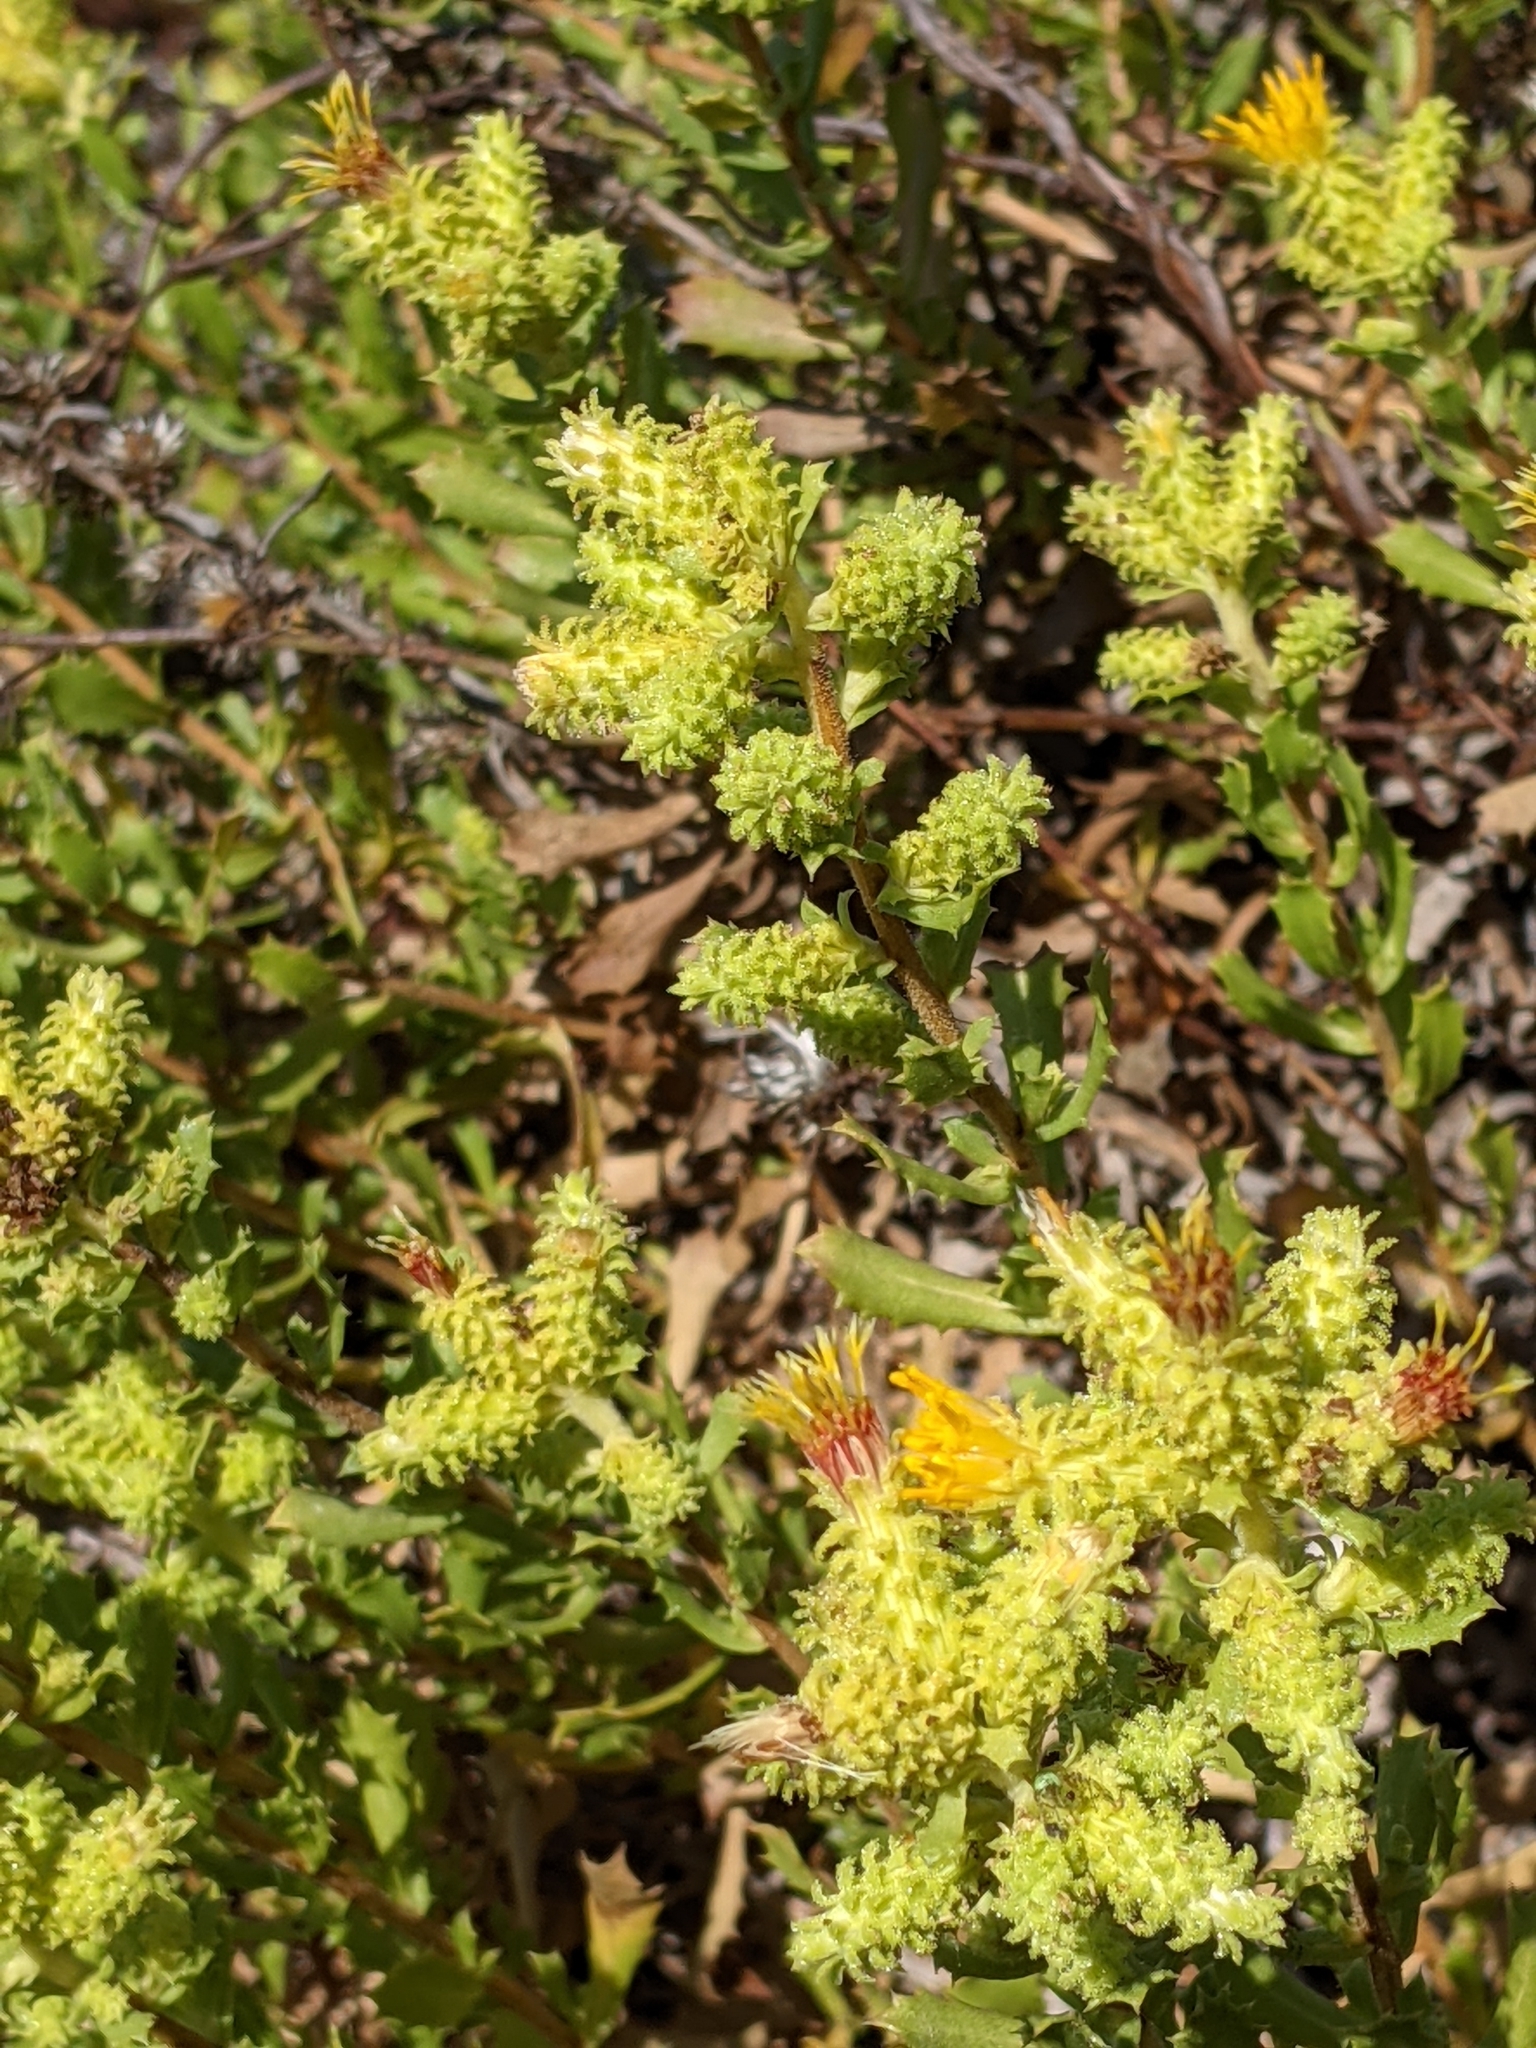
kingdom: Plantae
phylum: Tracheophyta
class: Magnoliopsida
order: Asterales
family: Asteraceae
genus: Hazardia
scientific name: Hazardia squarrosa
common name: Saw-tooth goldenbush
